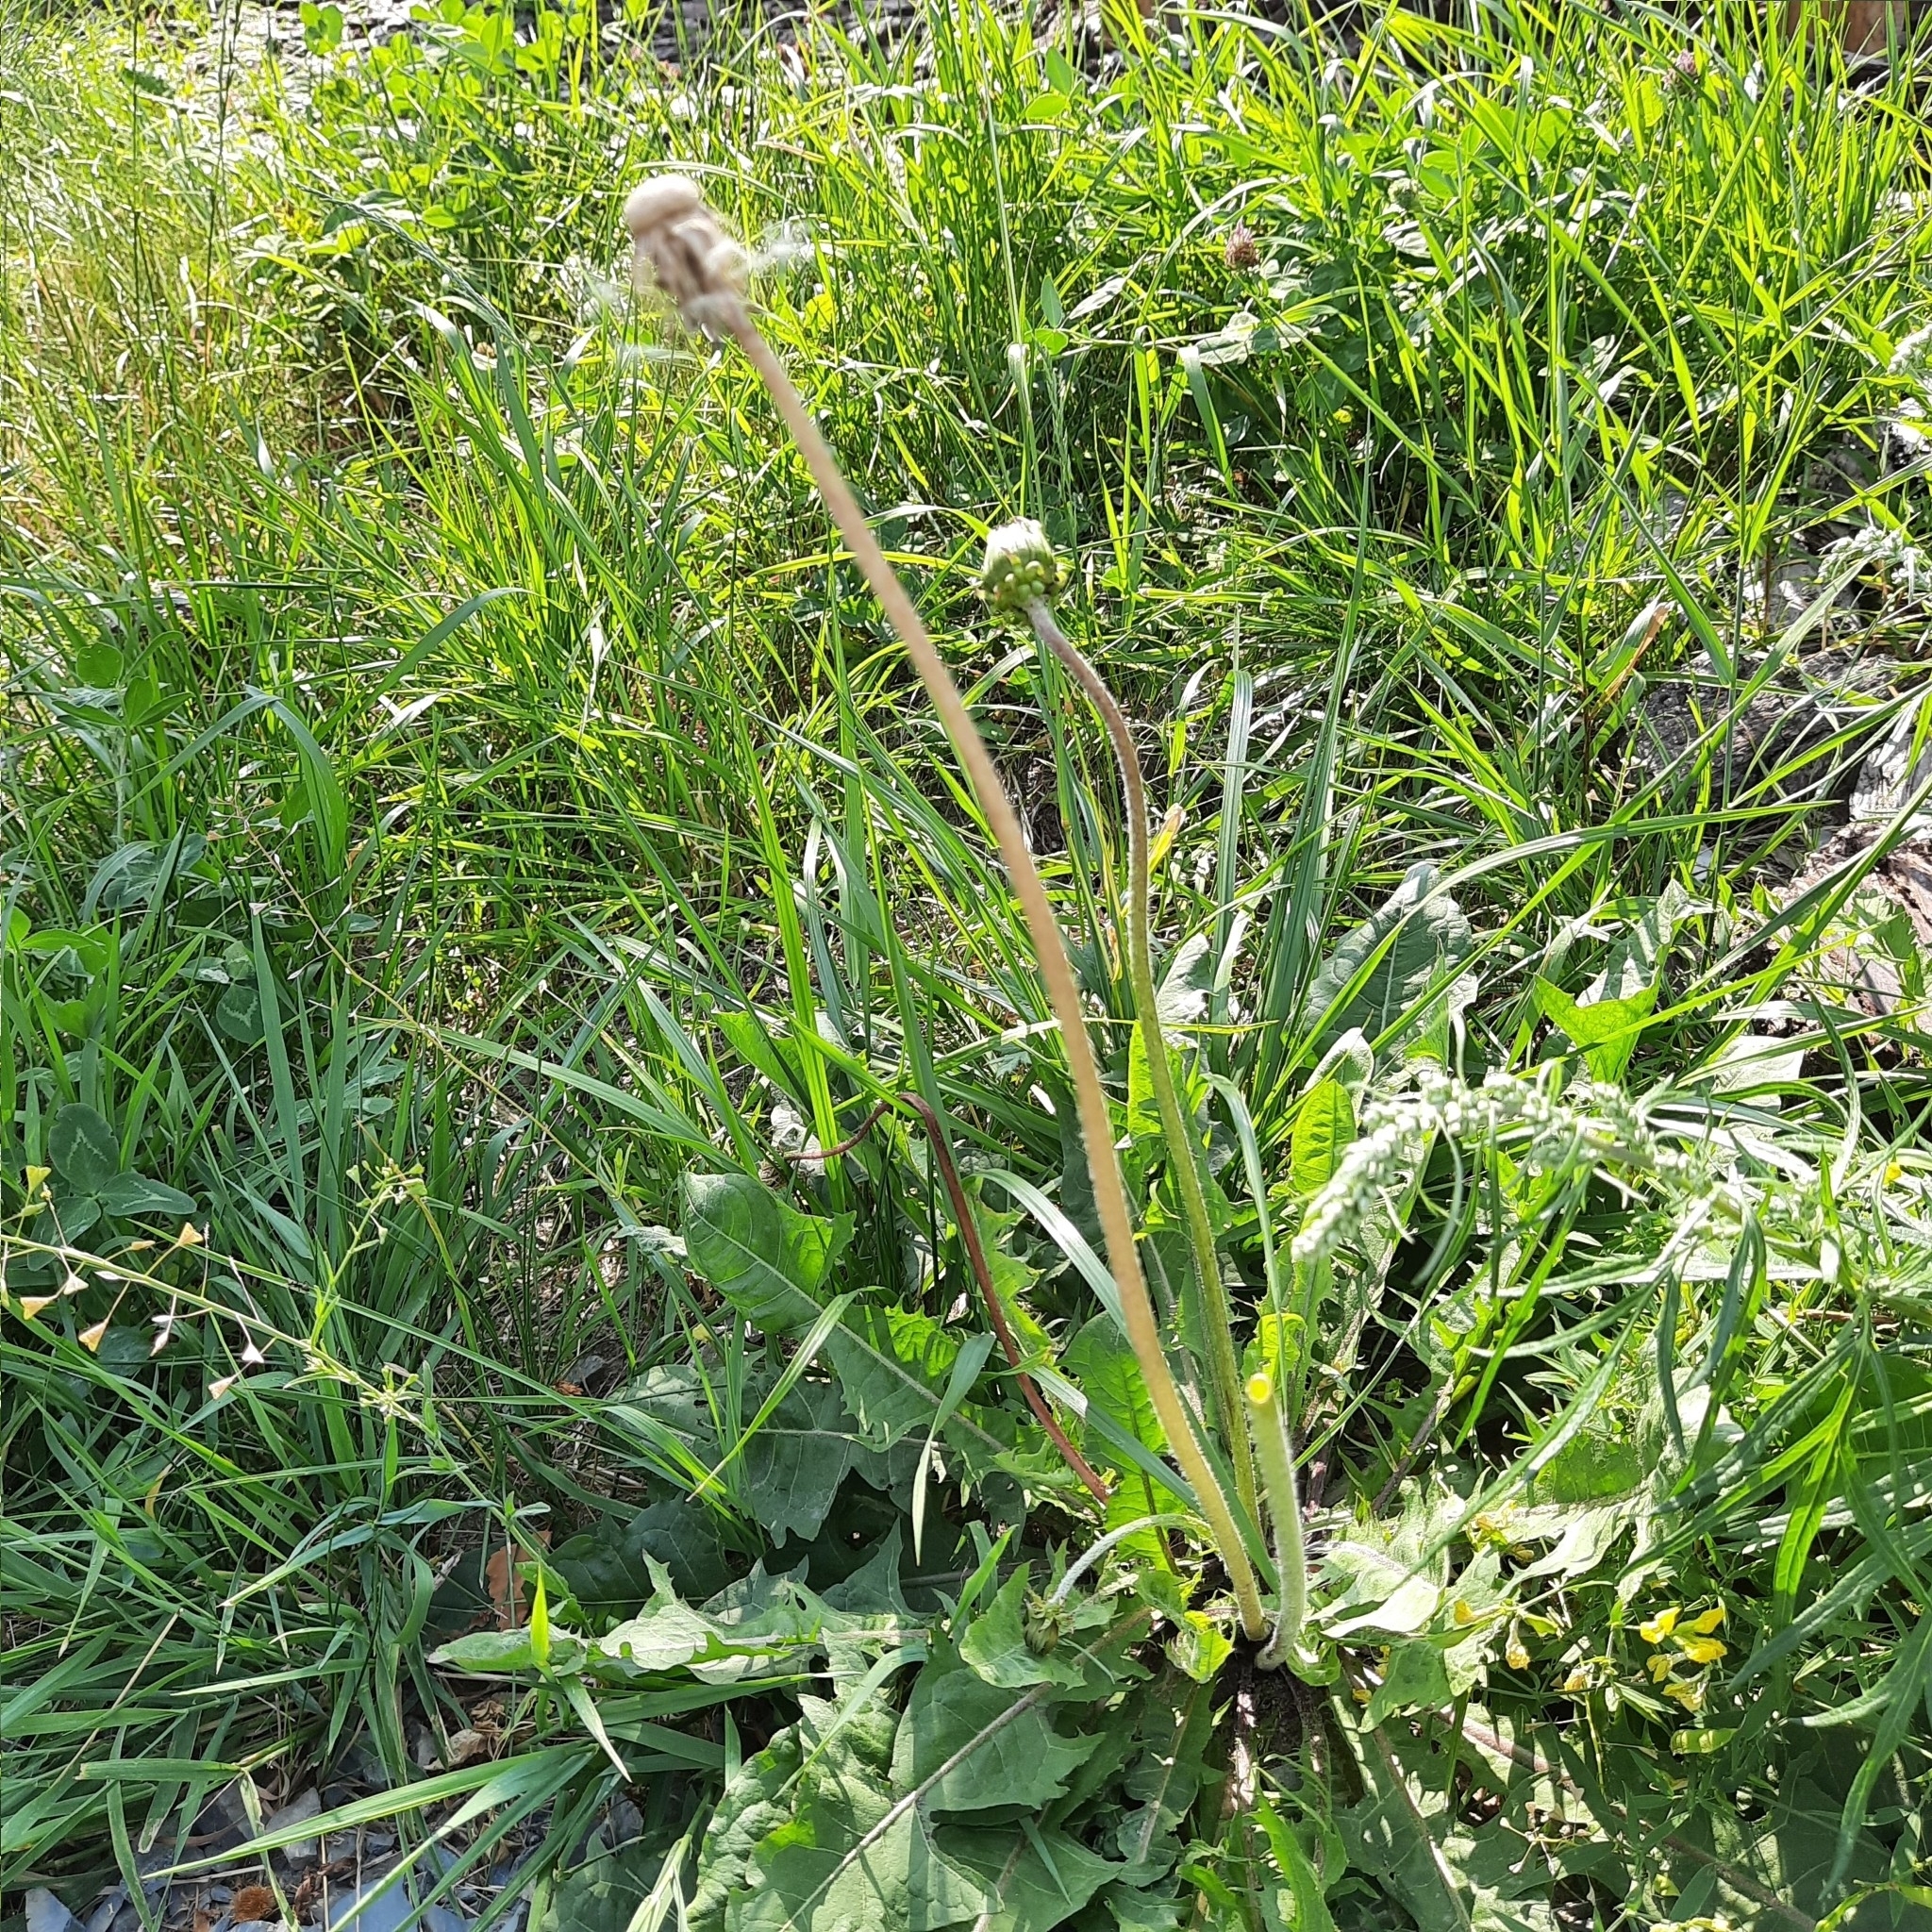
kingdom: Plantae
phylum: Tracheophyta
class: Magnoliopsida
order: Asterales
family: Asteraceae
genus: Taraxacum
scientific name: Taraxacum officinale
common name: Common dandelion
